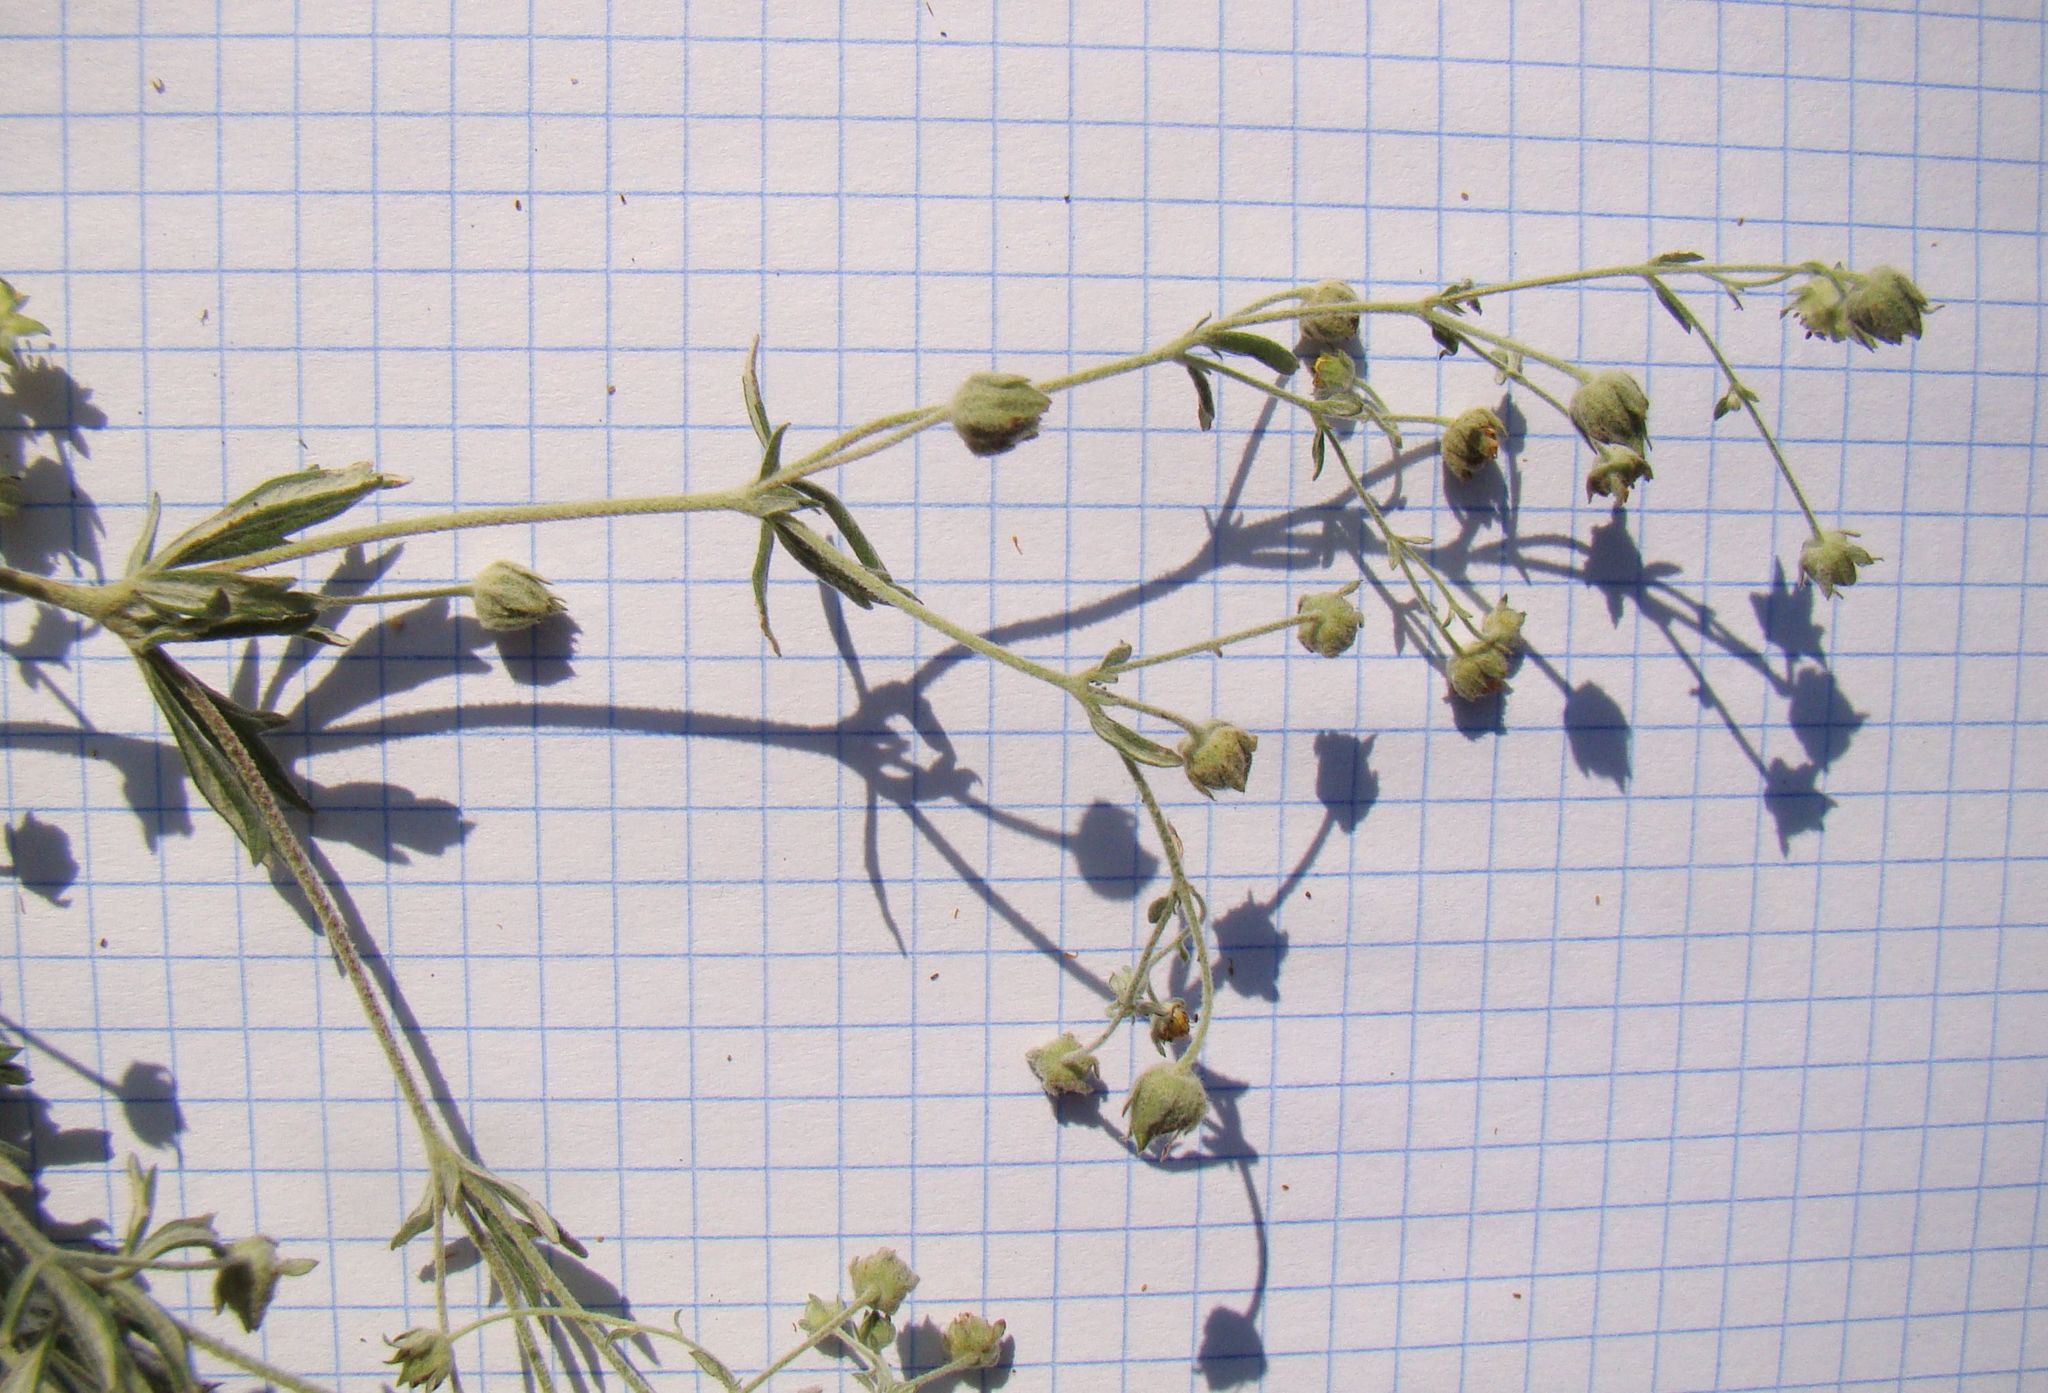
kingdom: Plantae
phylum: Tracheophyta
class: Magnoliopsida
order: Rosales
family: Rosaceae
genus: Potentilla
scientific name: Potentilla argentea
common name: Hoary cinquefoil
